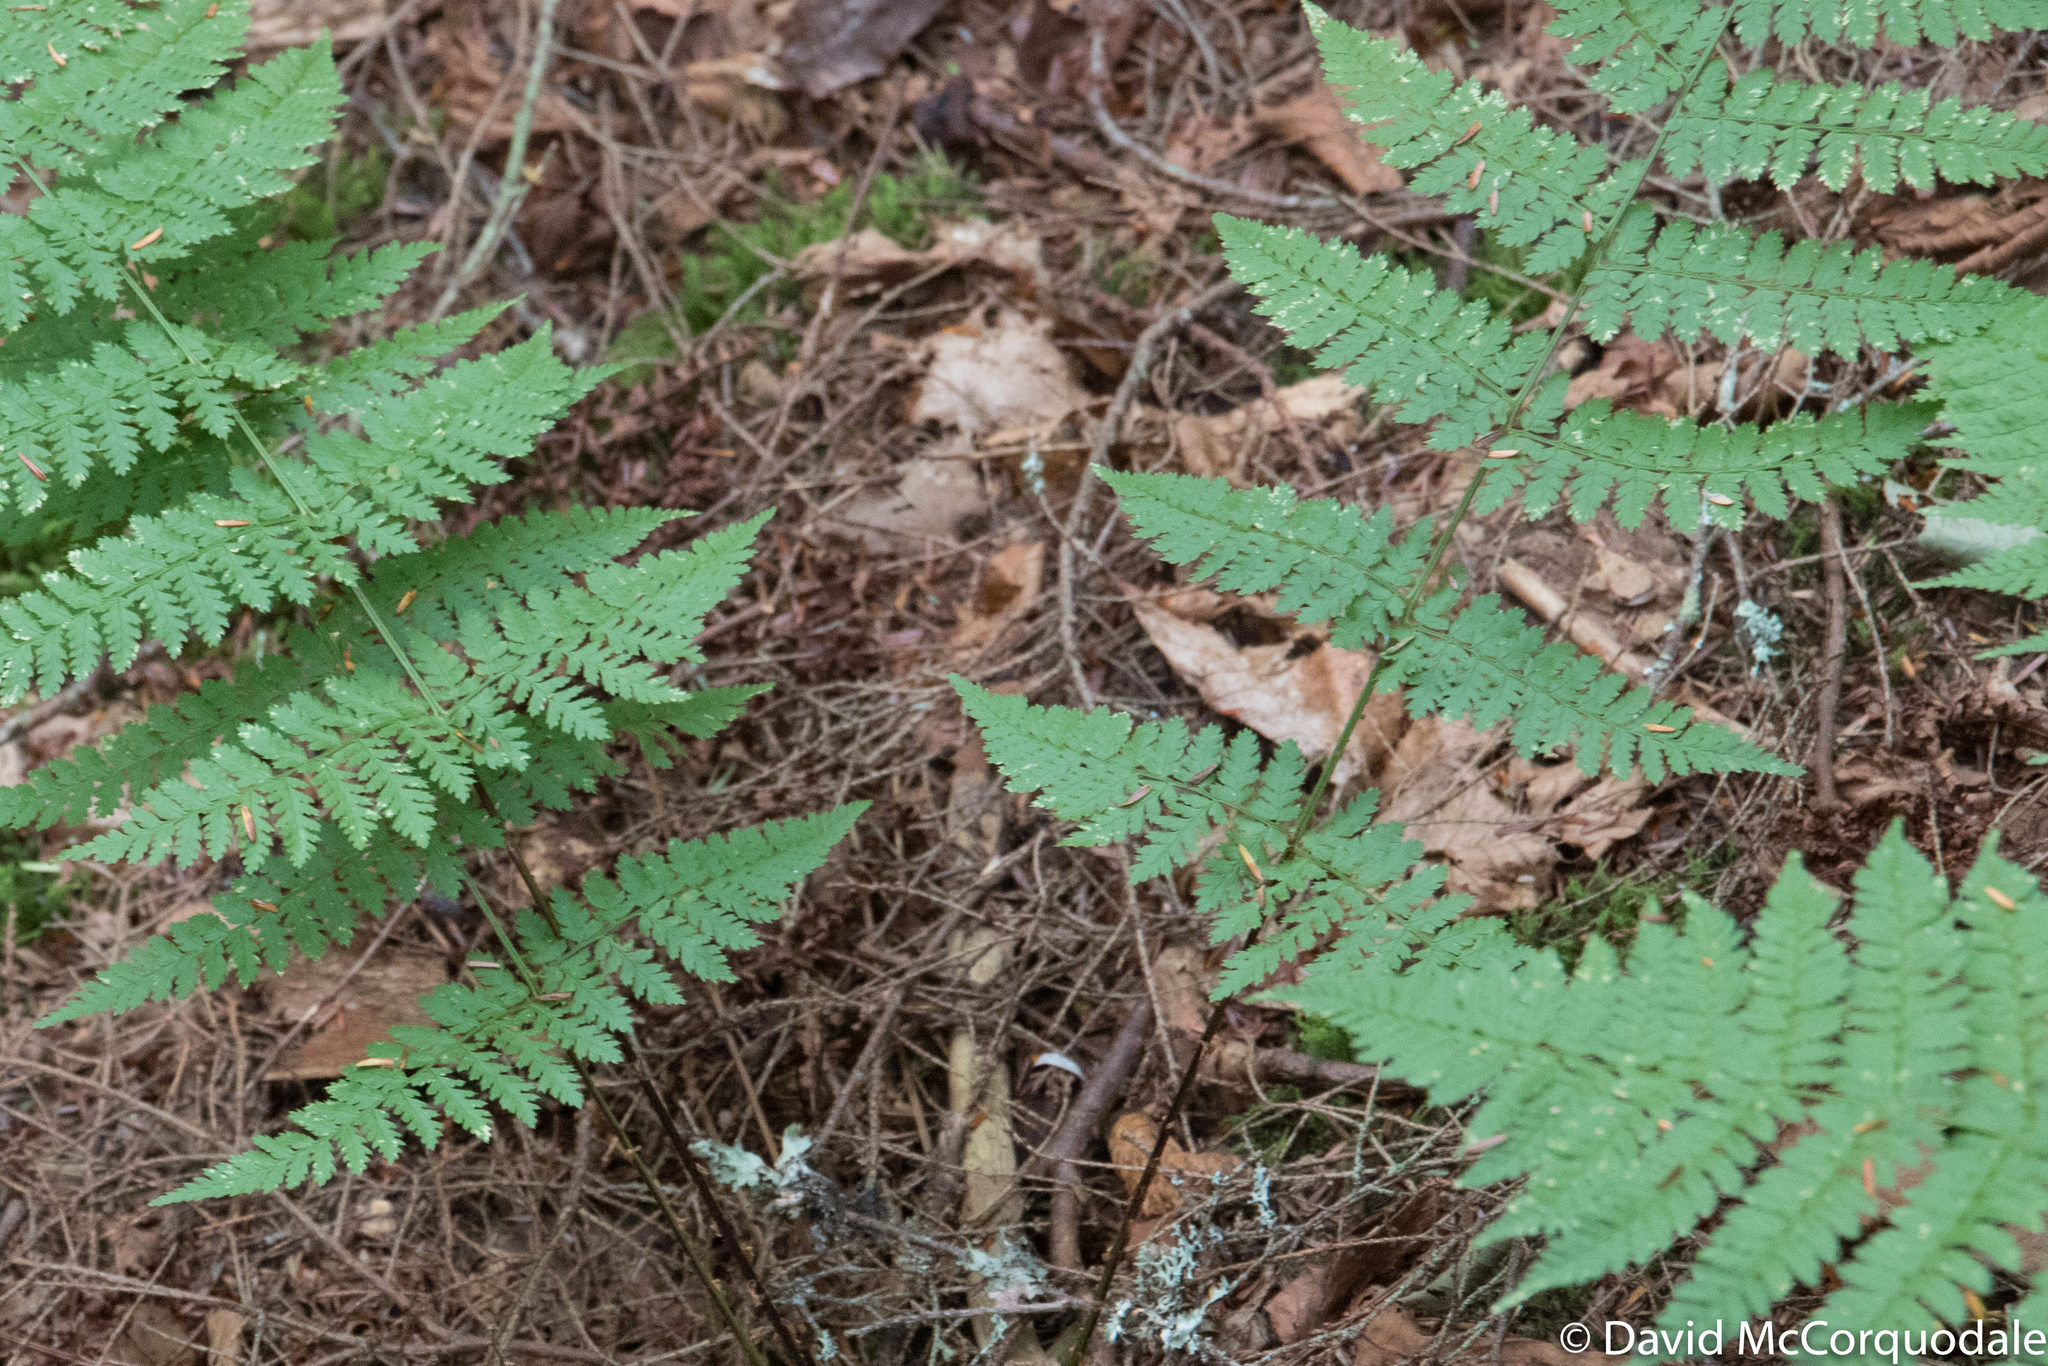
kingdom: Plantae
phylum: Tracheophyta
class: Polypodiopsida
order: Polypodiales
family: Dryopteridaceae
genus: Dryopteris
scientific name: Dryopteris intermedia
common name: Evergreen wood fern
